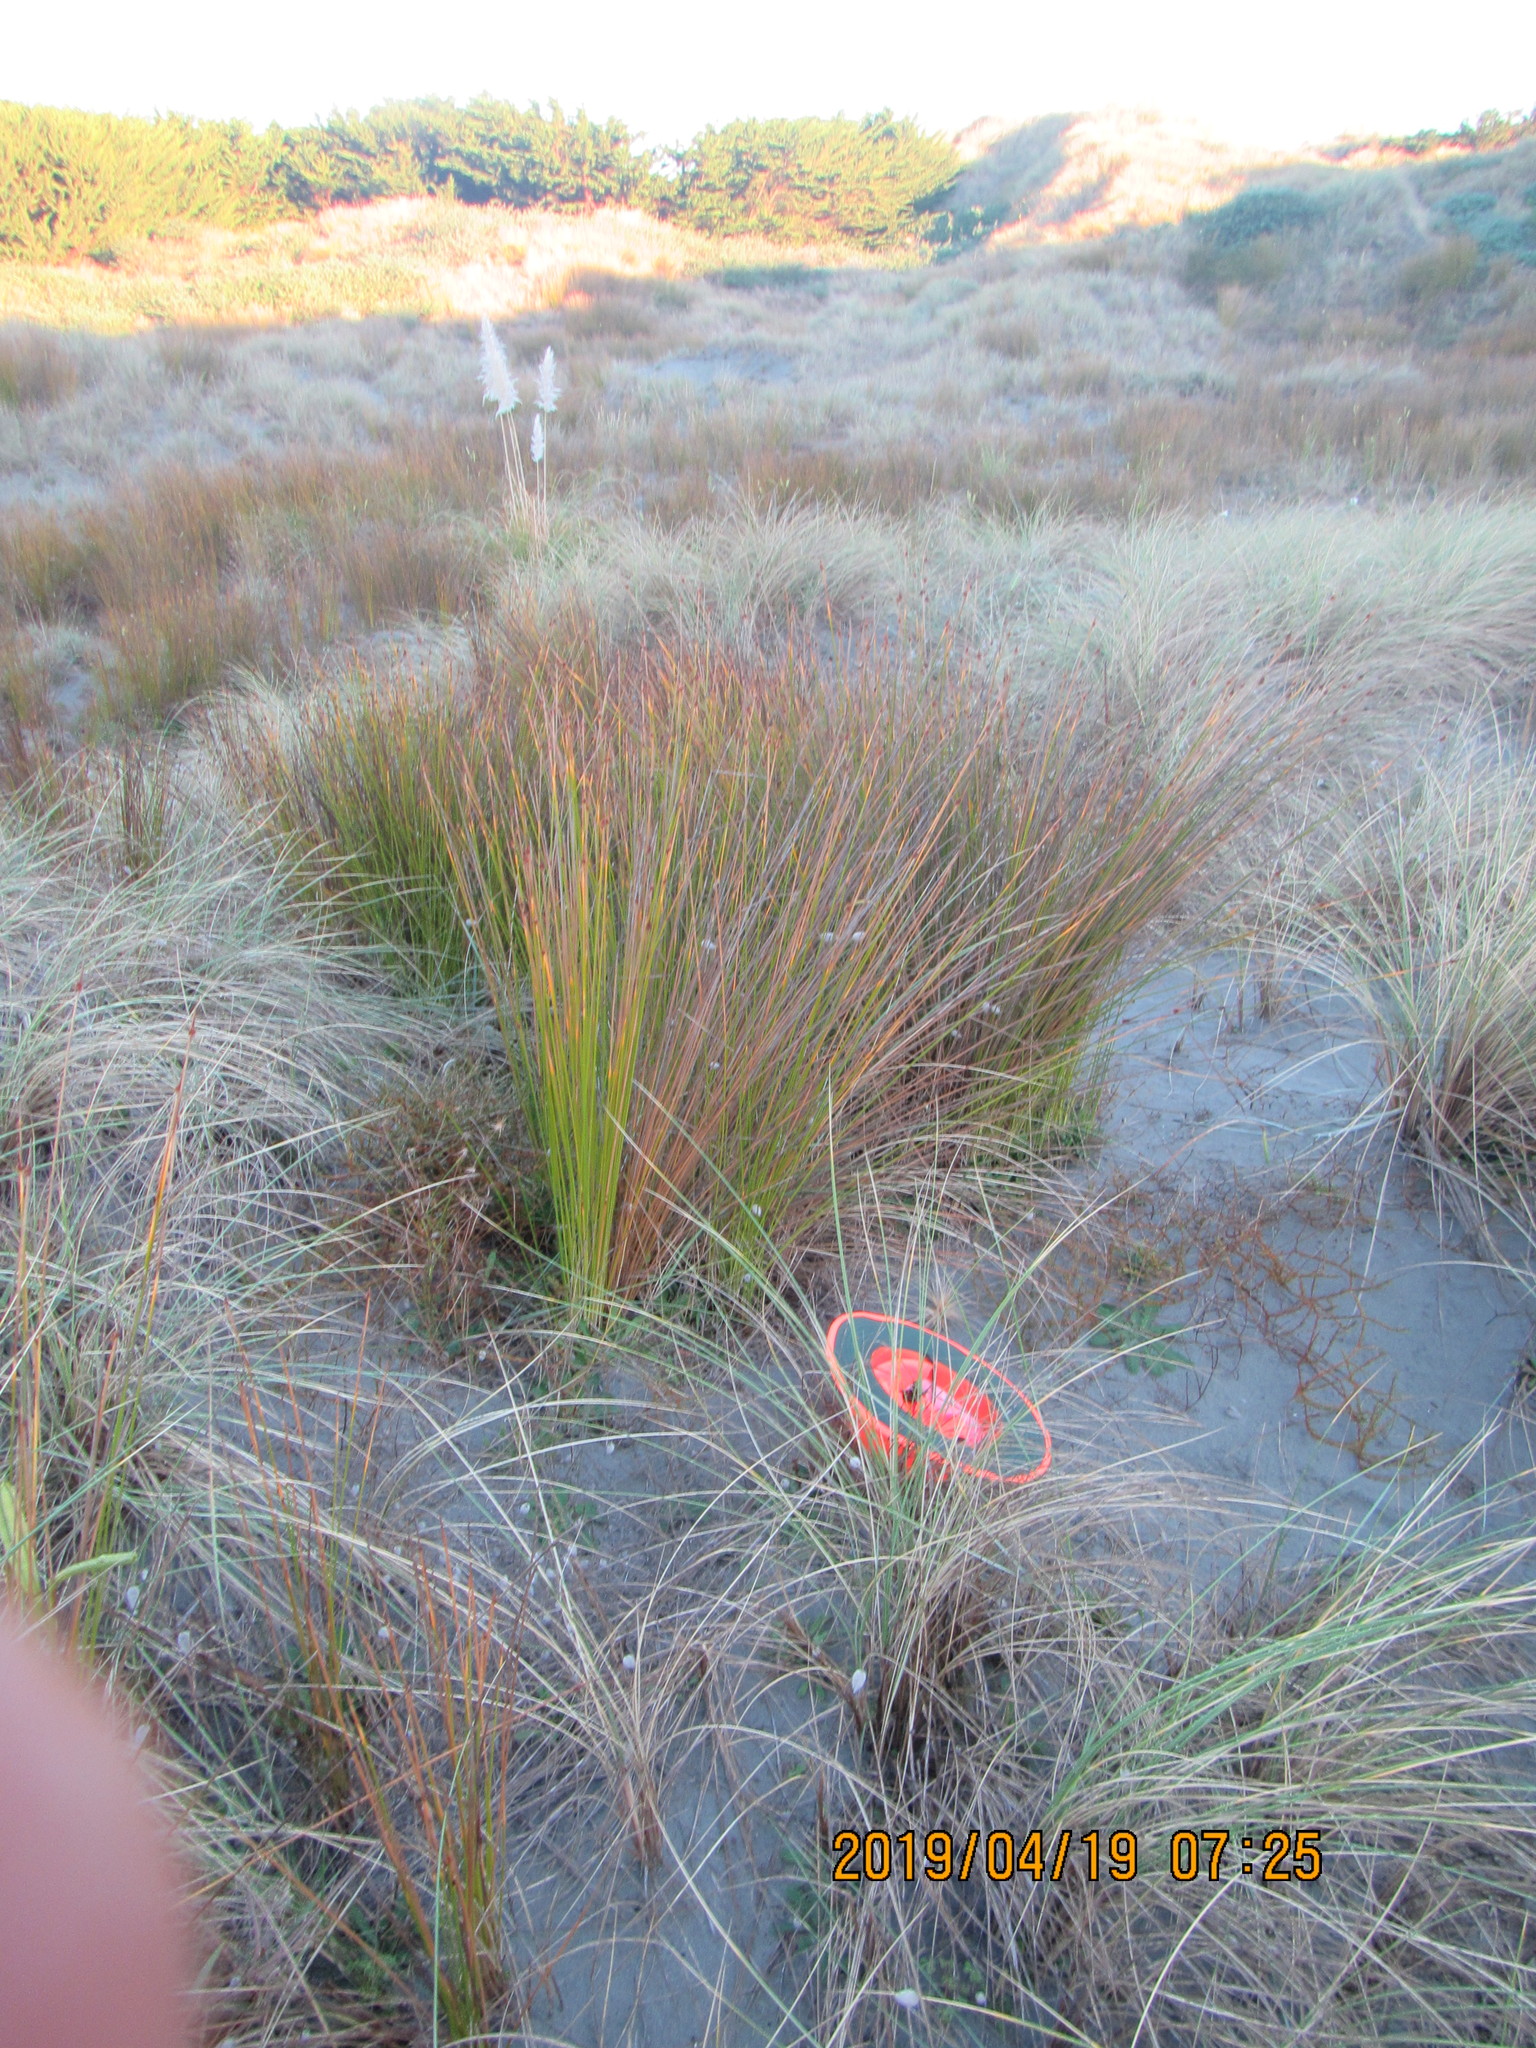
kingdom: Plantae
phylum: Tracheophyta
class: Magnoliopsida
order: Gentianales
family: Rubiaceae
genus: Coprosma
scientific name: Coprosma acerosa
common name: Sand coprosma
